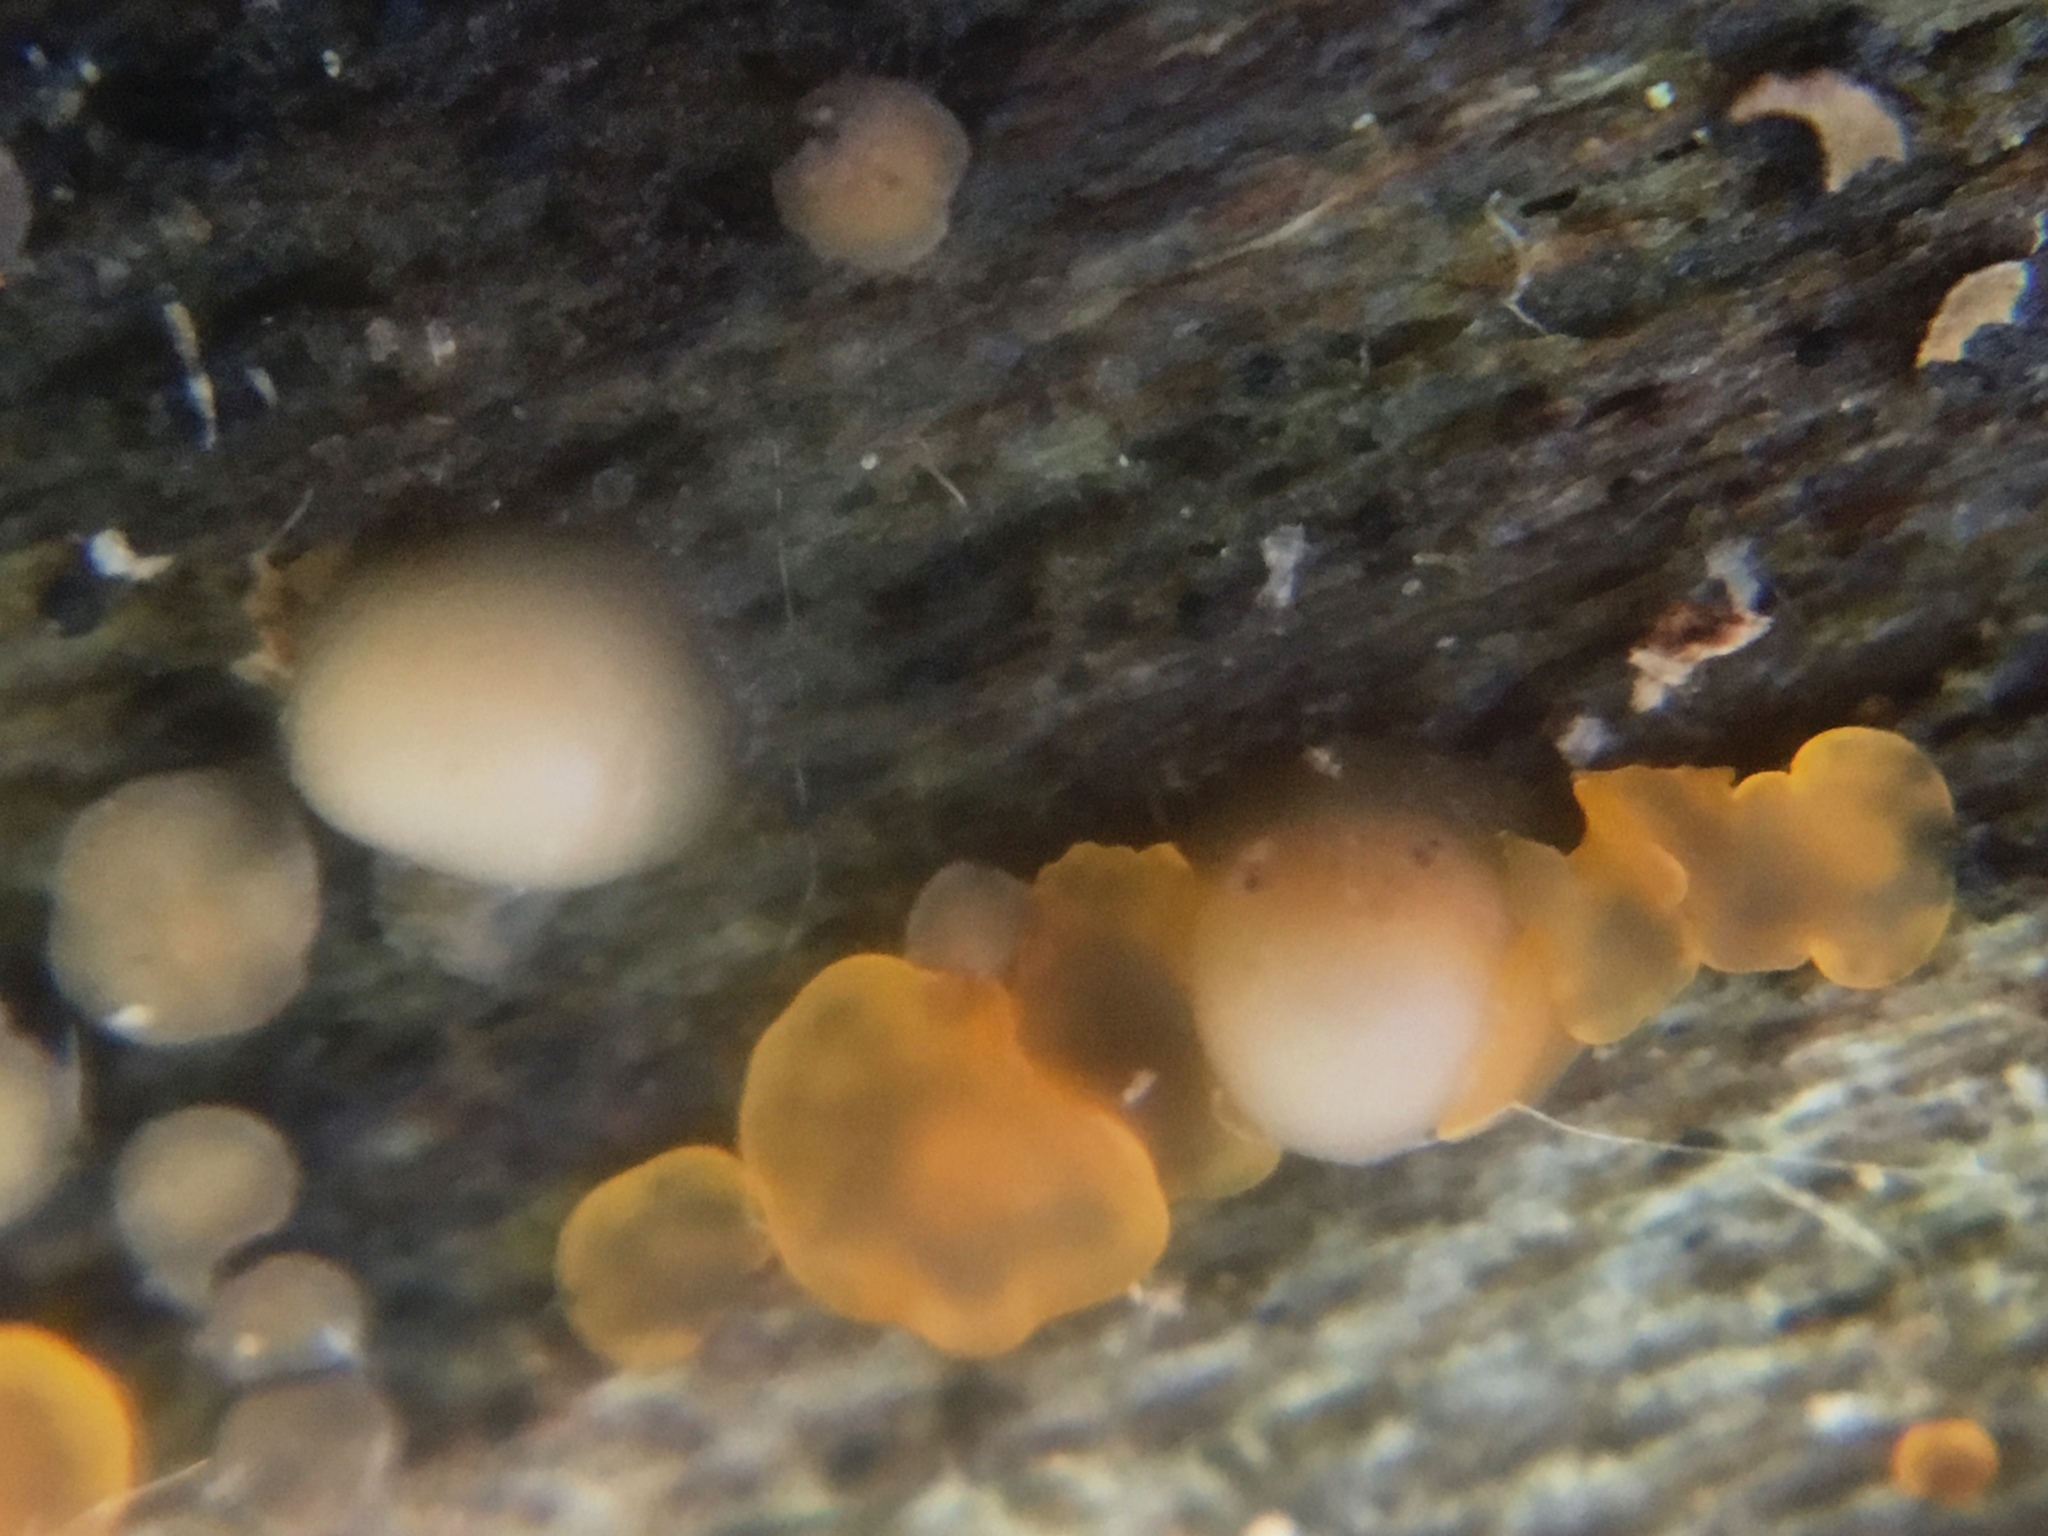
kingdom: Fungi
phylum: Basidiomycota
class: Atractiellomycetes
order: Atractiellales
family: Phleogenaceae
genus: Helicogloea
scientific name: Helicogloea compressa
